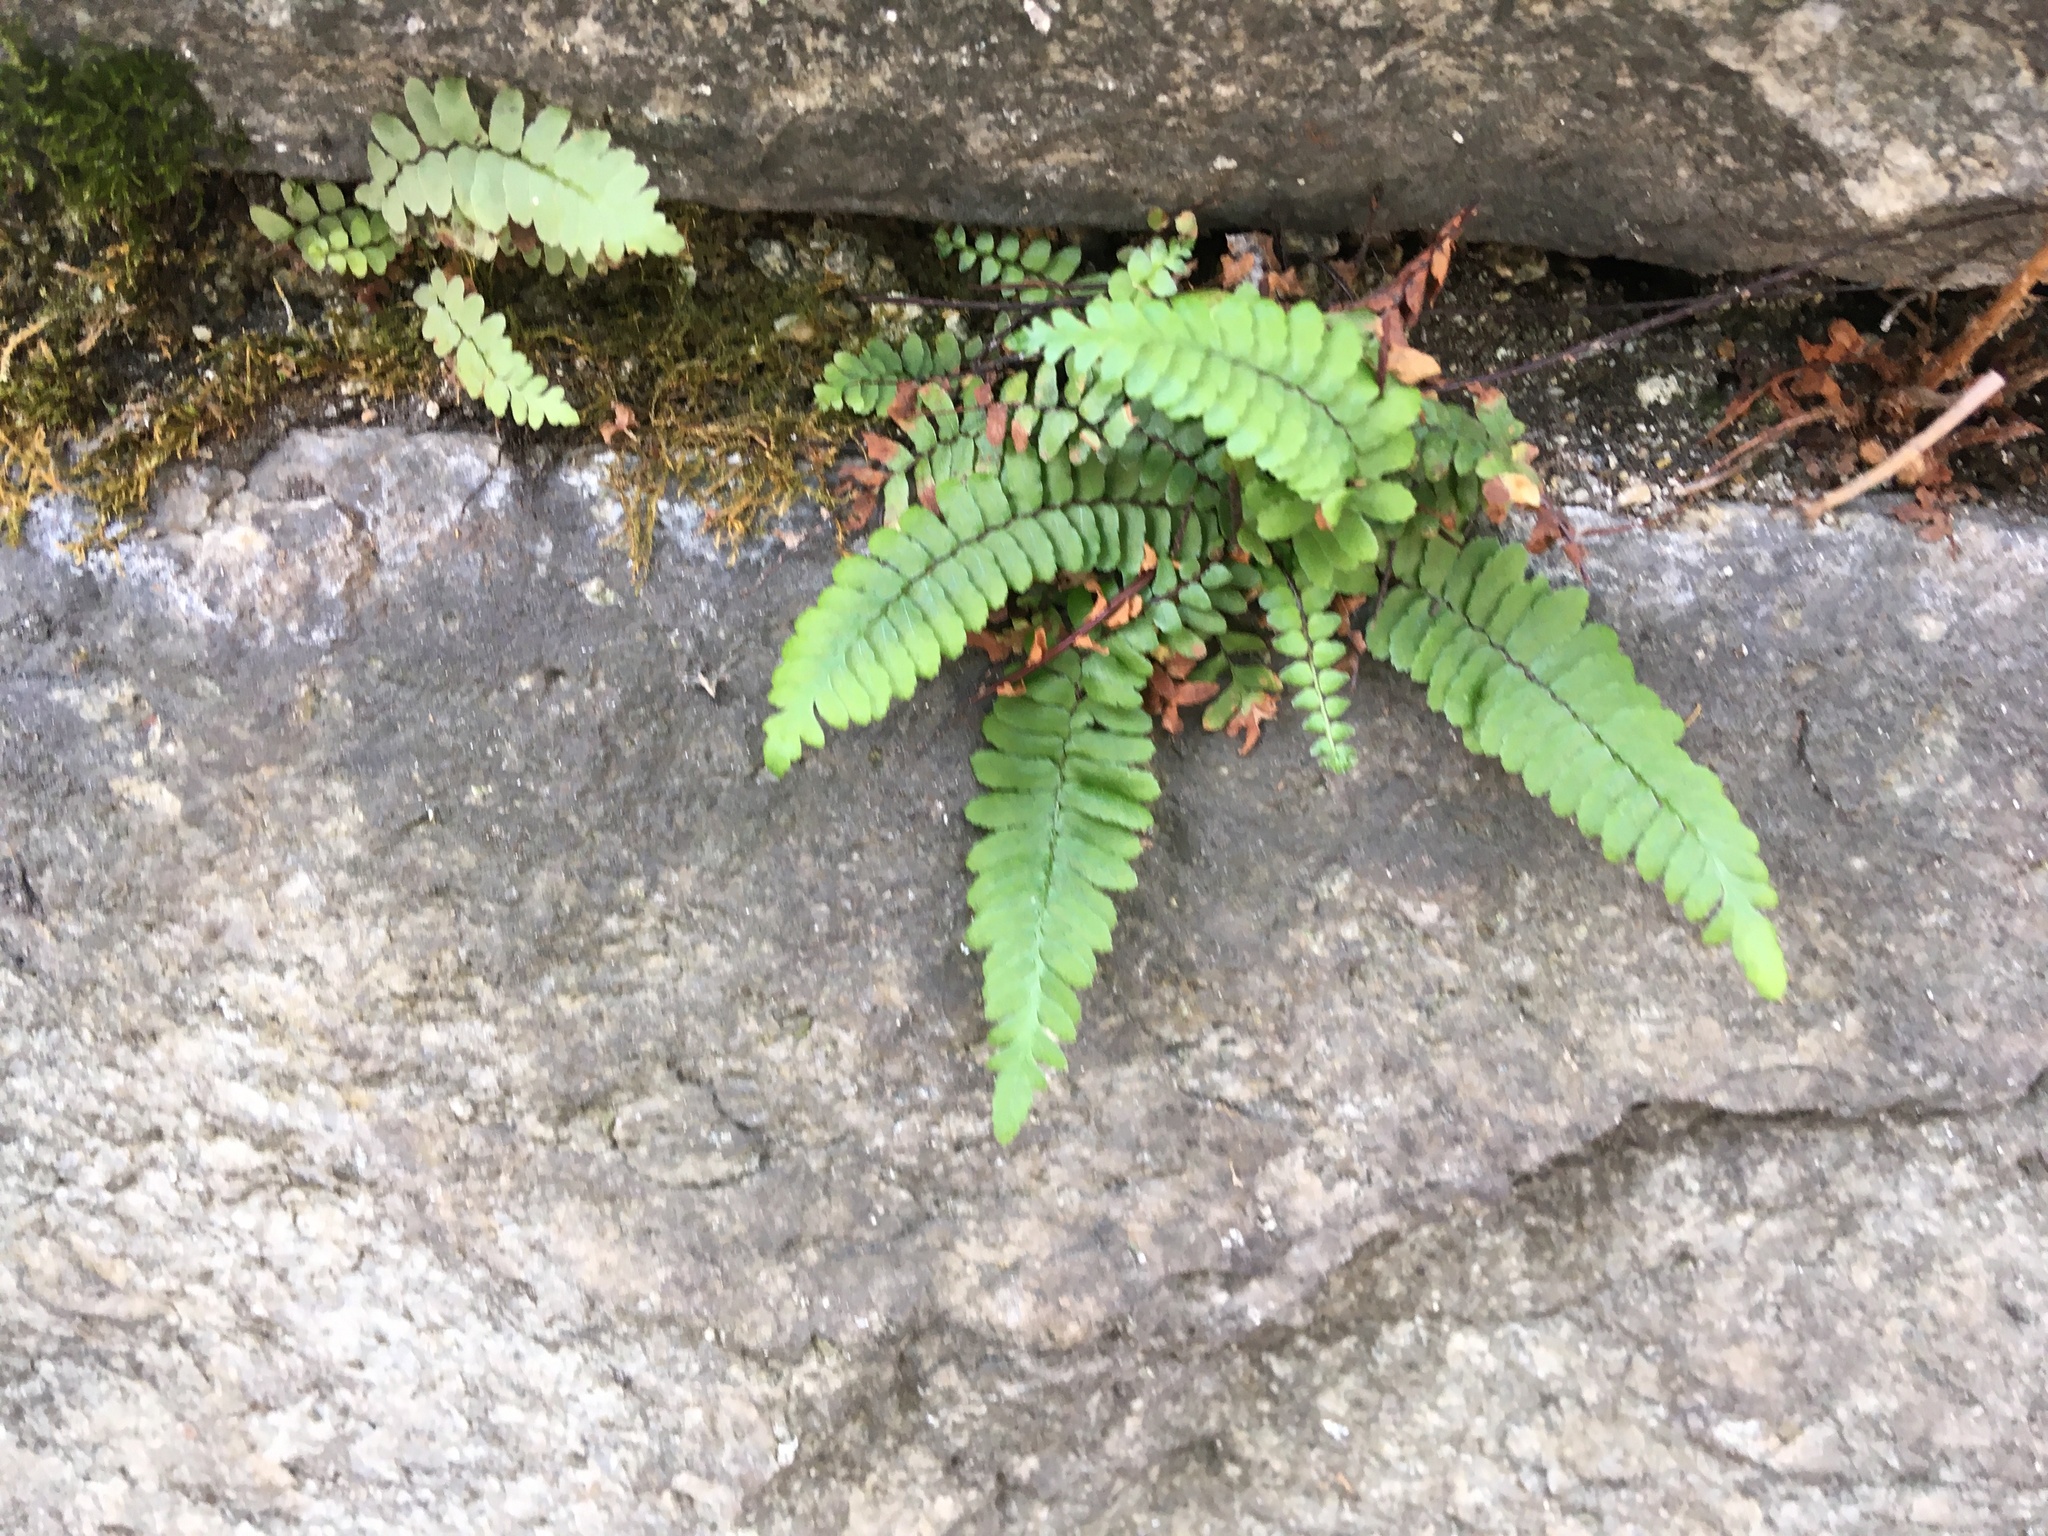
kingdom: Plantae
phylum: Tracheophyta
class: Polypodiopsida
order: Polypodiales
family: Aspleniaceae
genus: Asplenium
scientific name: Asplenium platyneuron
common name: Ebony spleenwort
